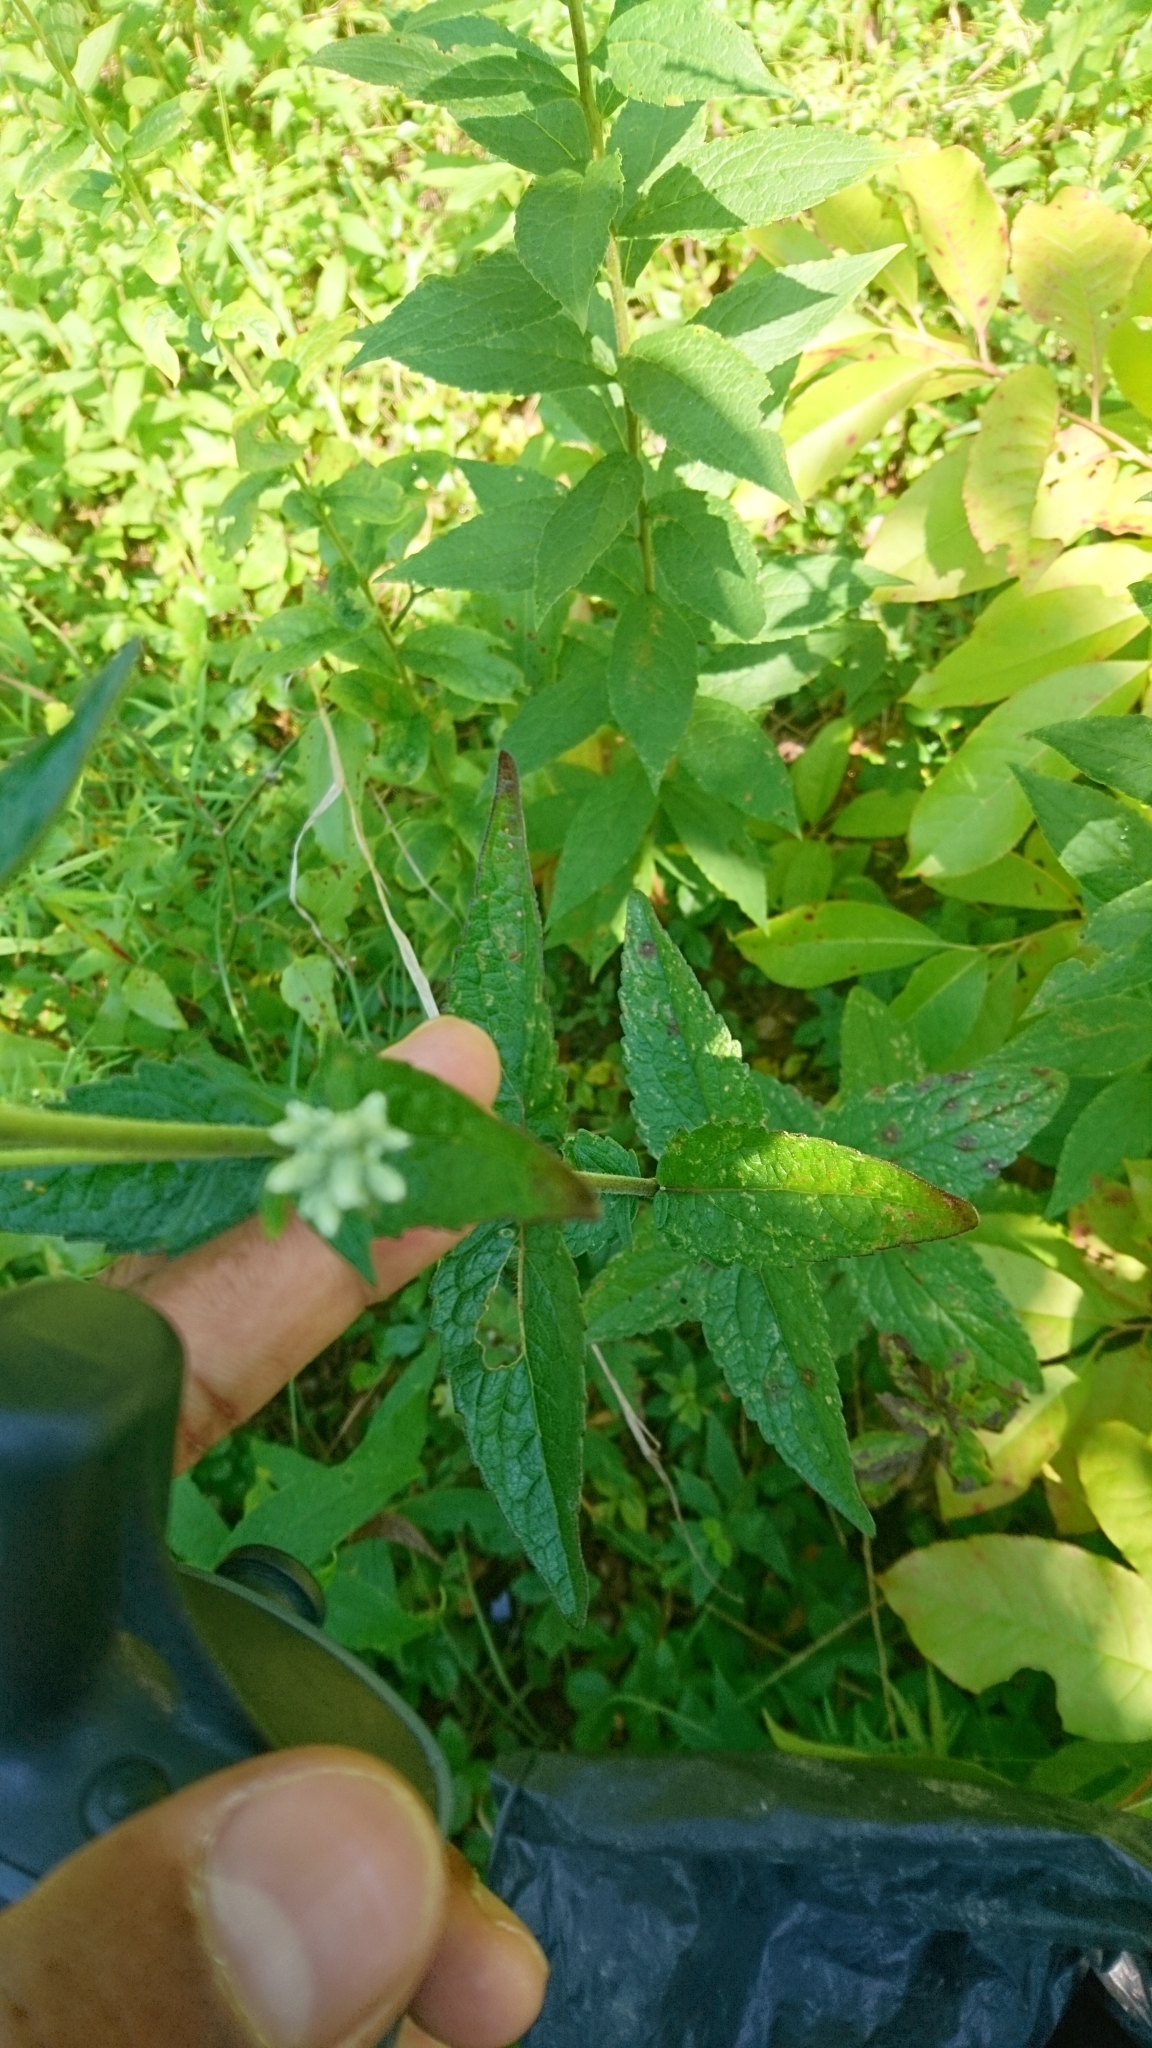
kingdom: Plantae
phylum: Tracheophyta
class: Magnoliopsida
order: Asterales
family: Asteraceae
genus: Eupatorium
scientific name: Eupatorium pilosum
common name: Rough boneset
